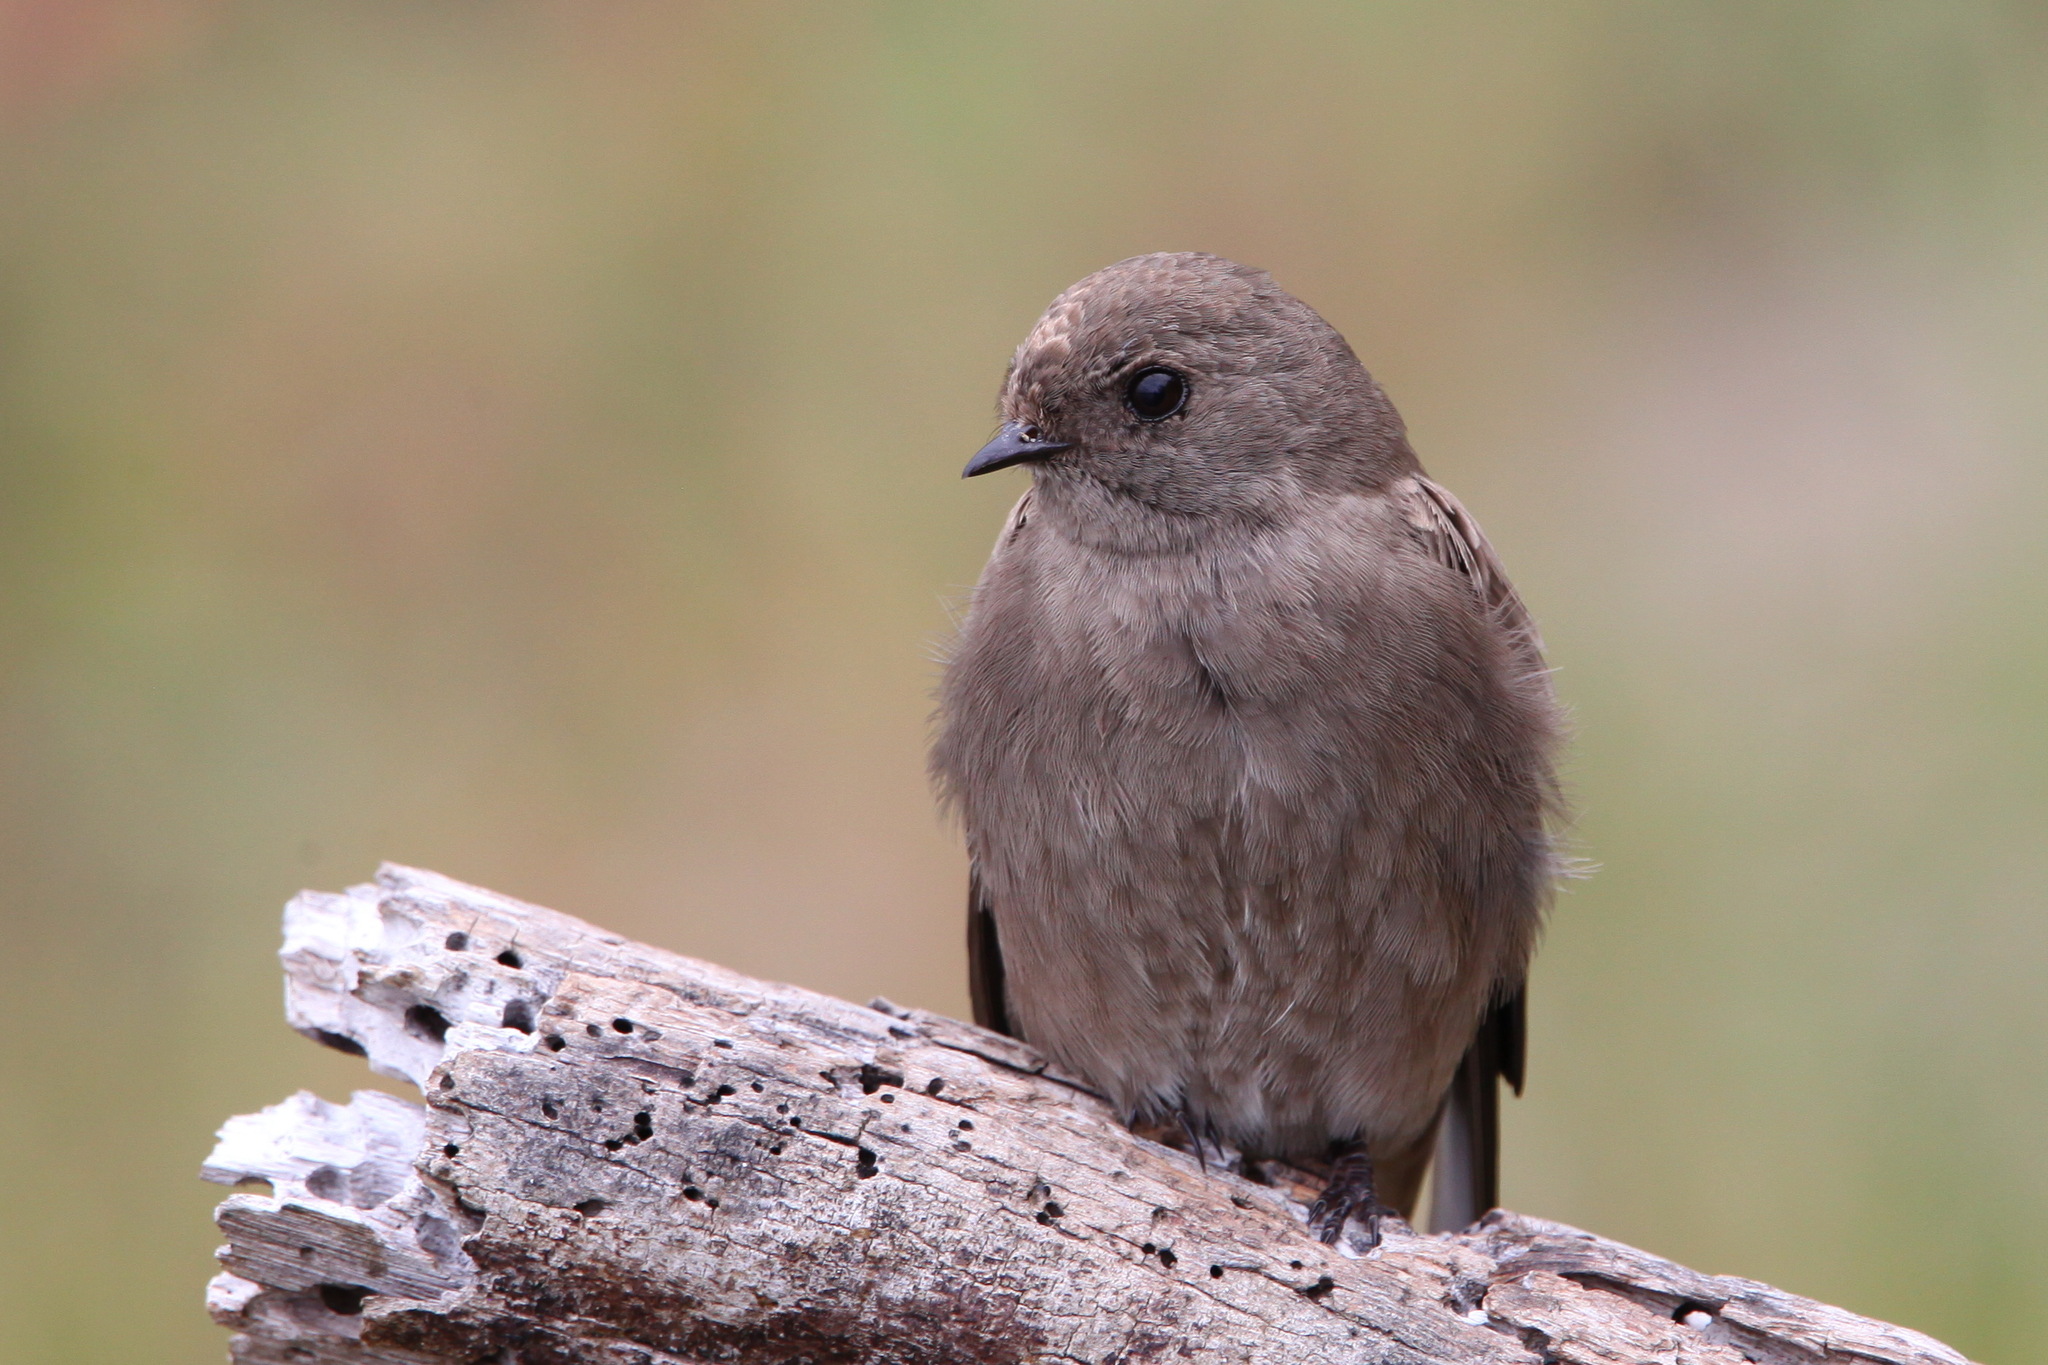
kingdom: Animalia
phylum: Chordata
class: Aves
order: Passeriformes
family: Hirundinidae
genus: Riparia
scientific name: Riparia paludicola
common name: Brown-throated martin
